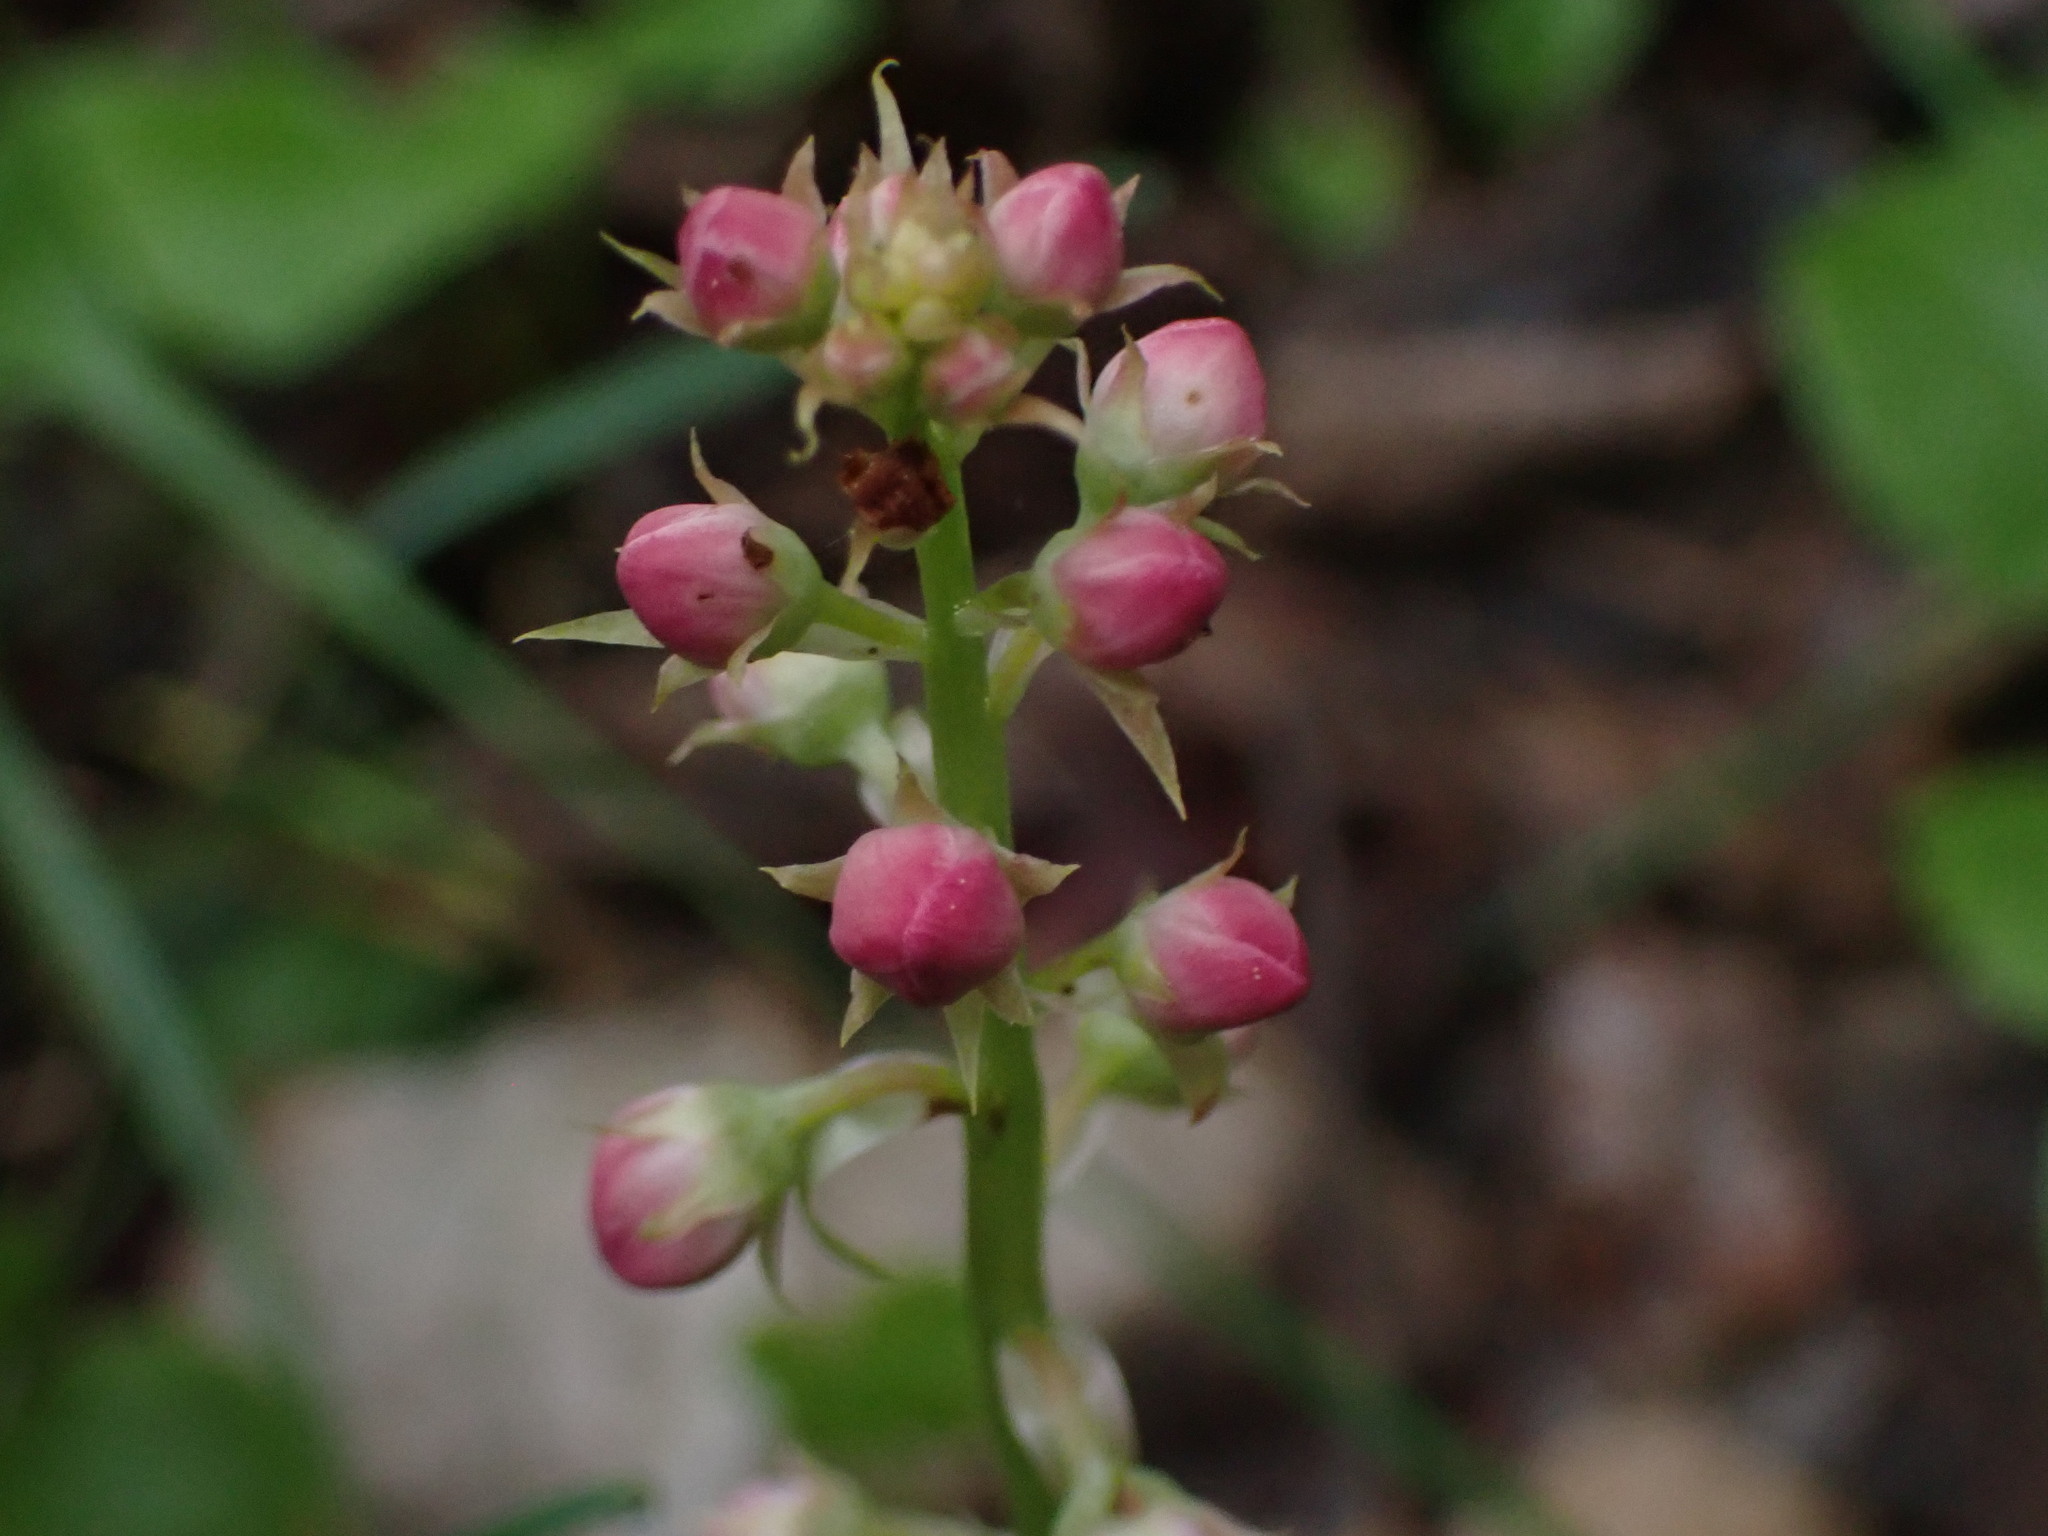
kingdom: Plantae
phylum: Tracheophyta
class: Magnoliopsida
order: Ericales
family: Ericaceae
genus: Pyrola
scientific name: Pyrola asarifolia
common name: Bog wintergreen
